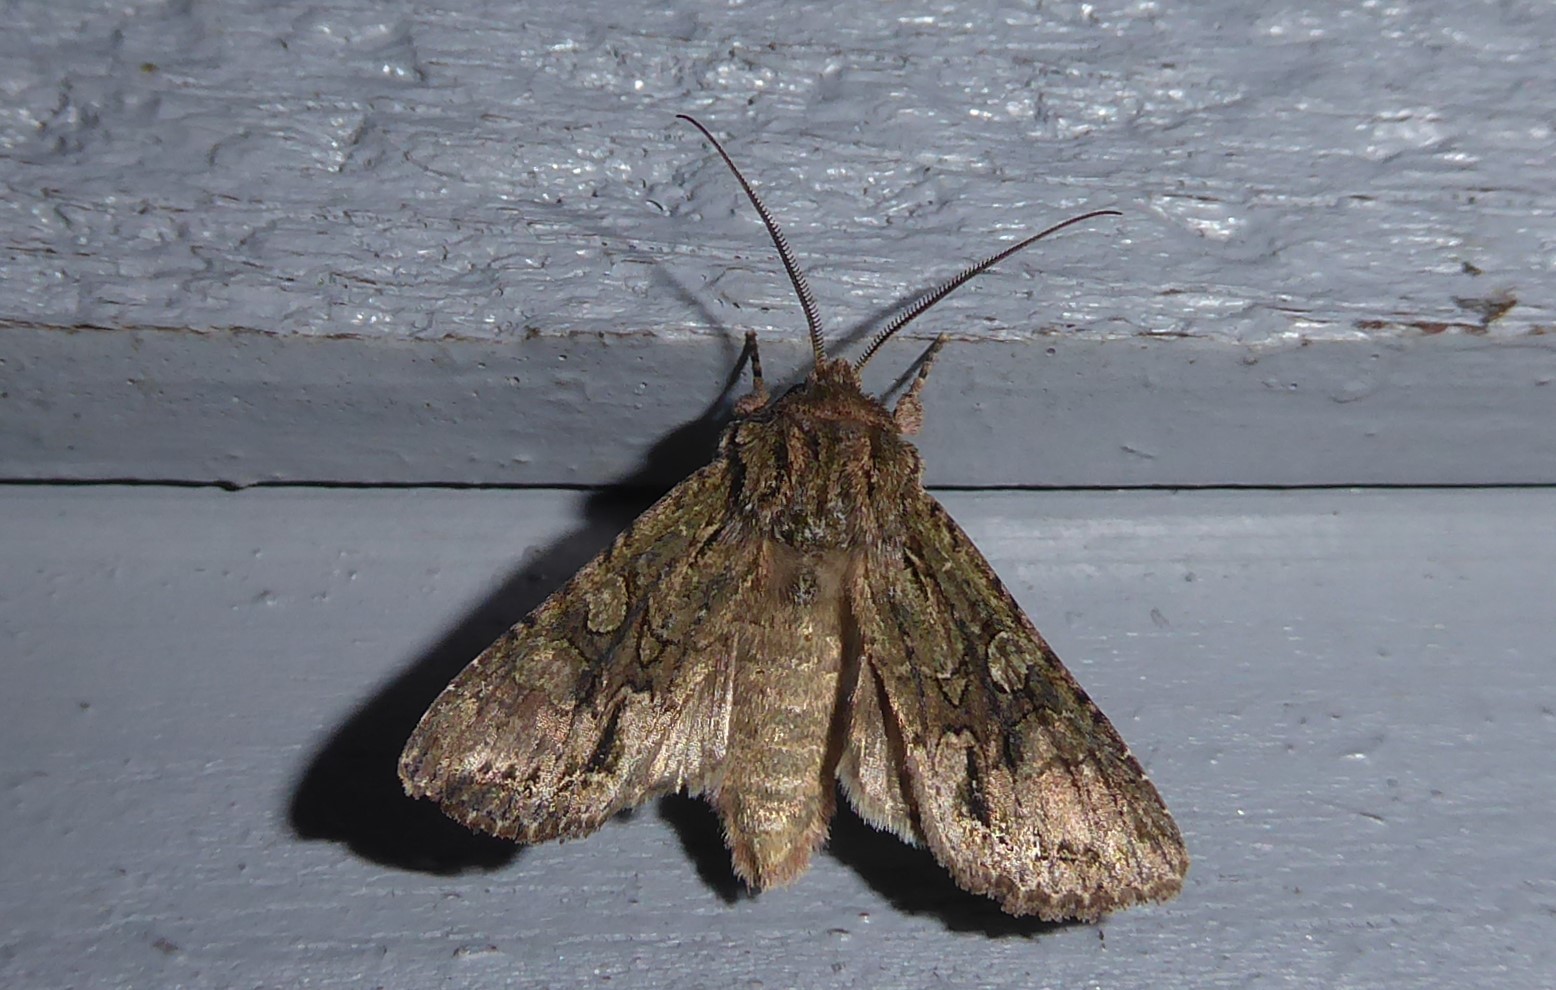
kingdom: Animalia
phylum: Arthropoda
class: Insecta
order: Lepidoptera
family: Noctuidae
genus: Ichneutica
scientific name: Ichneutica mutans
